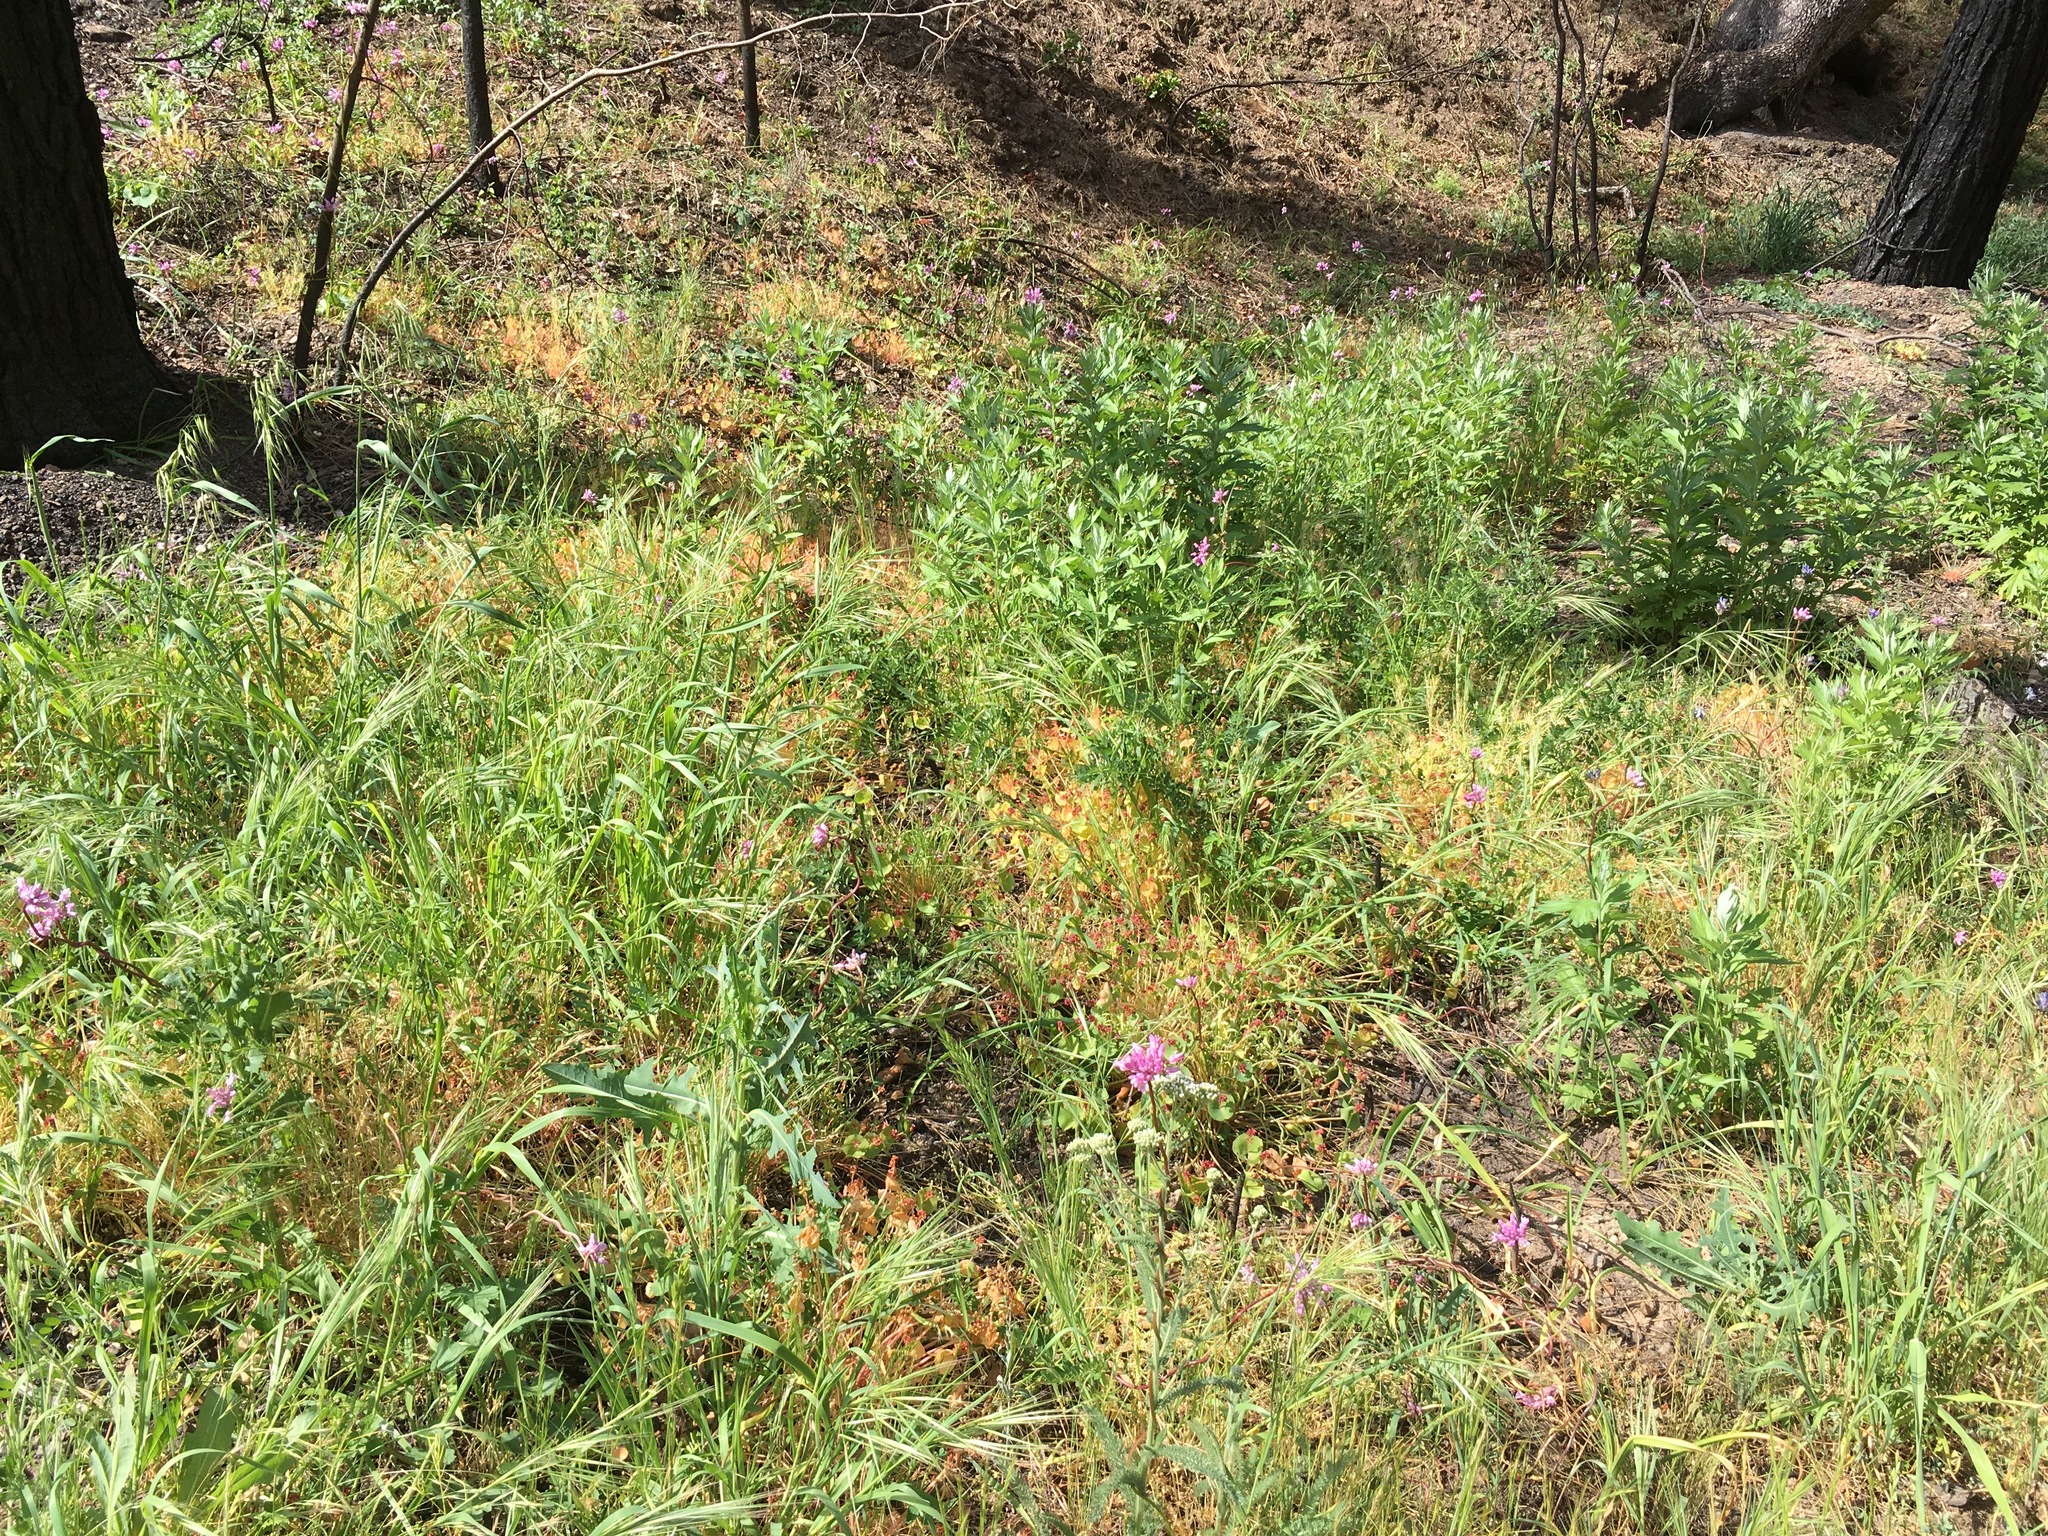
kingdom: Plantae
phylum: Tracheophyta
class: Liliopsida
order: Asparagales
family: Asparagaceae
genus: Dichelostemma
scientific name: Dichelostemma volubile
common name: Trining brodiaea
